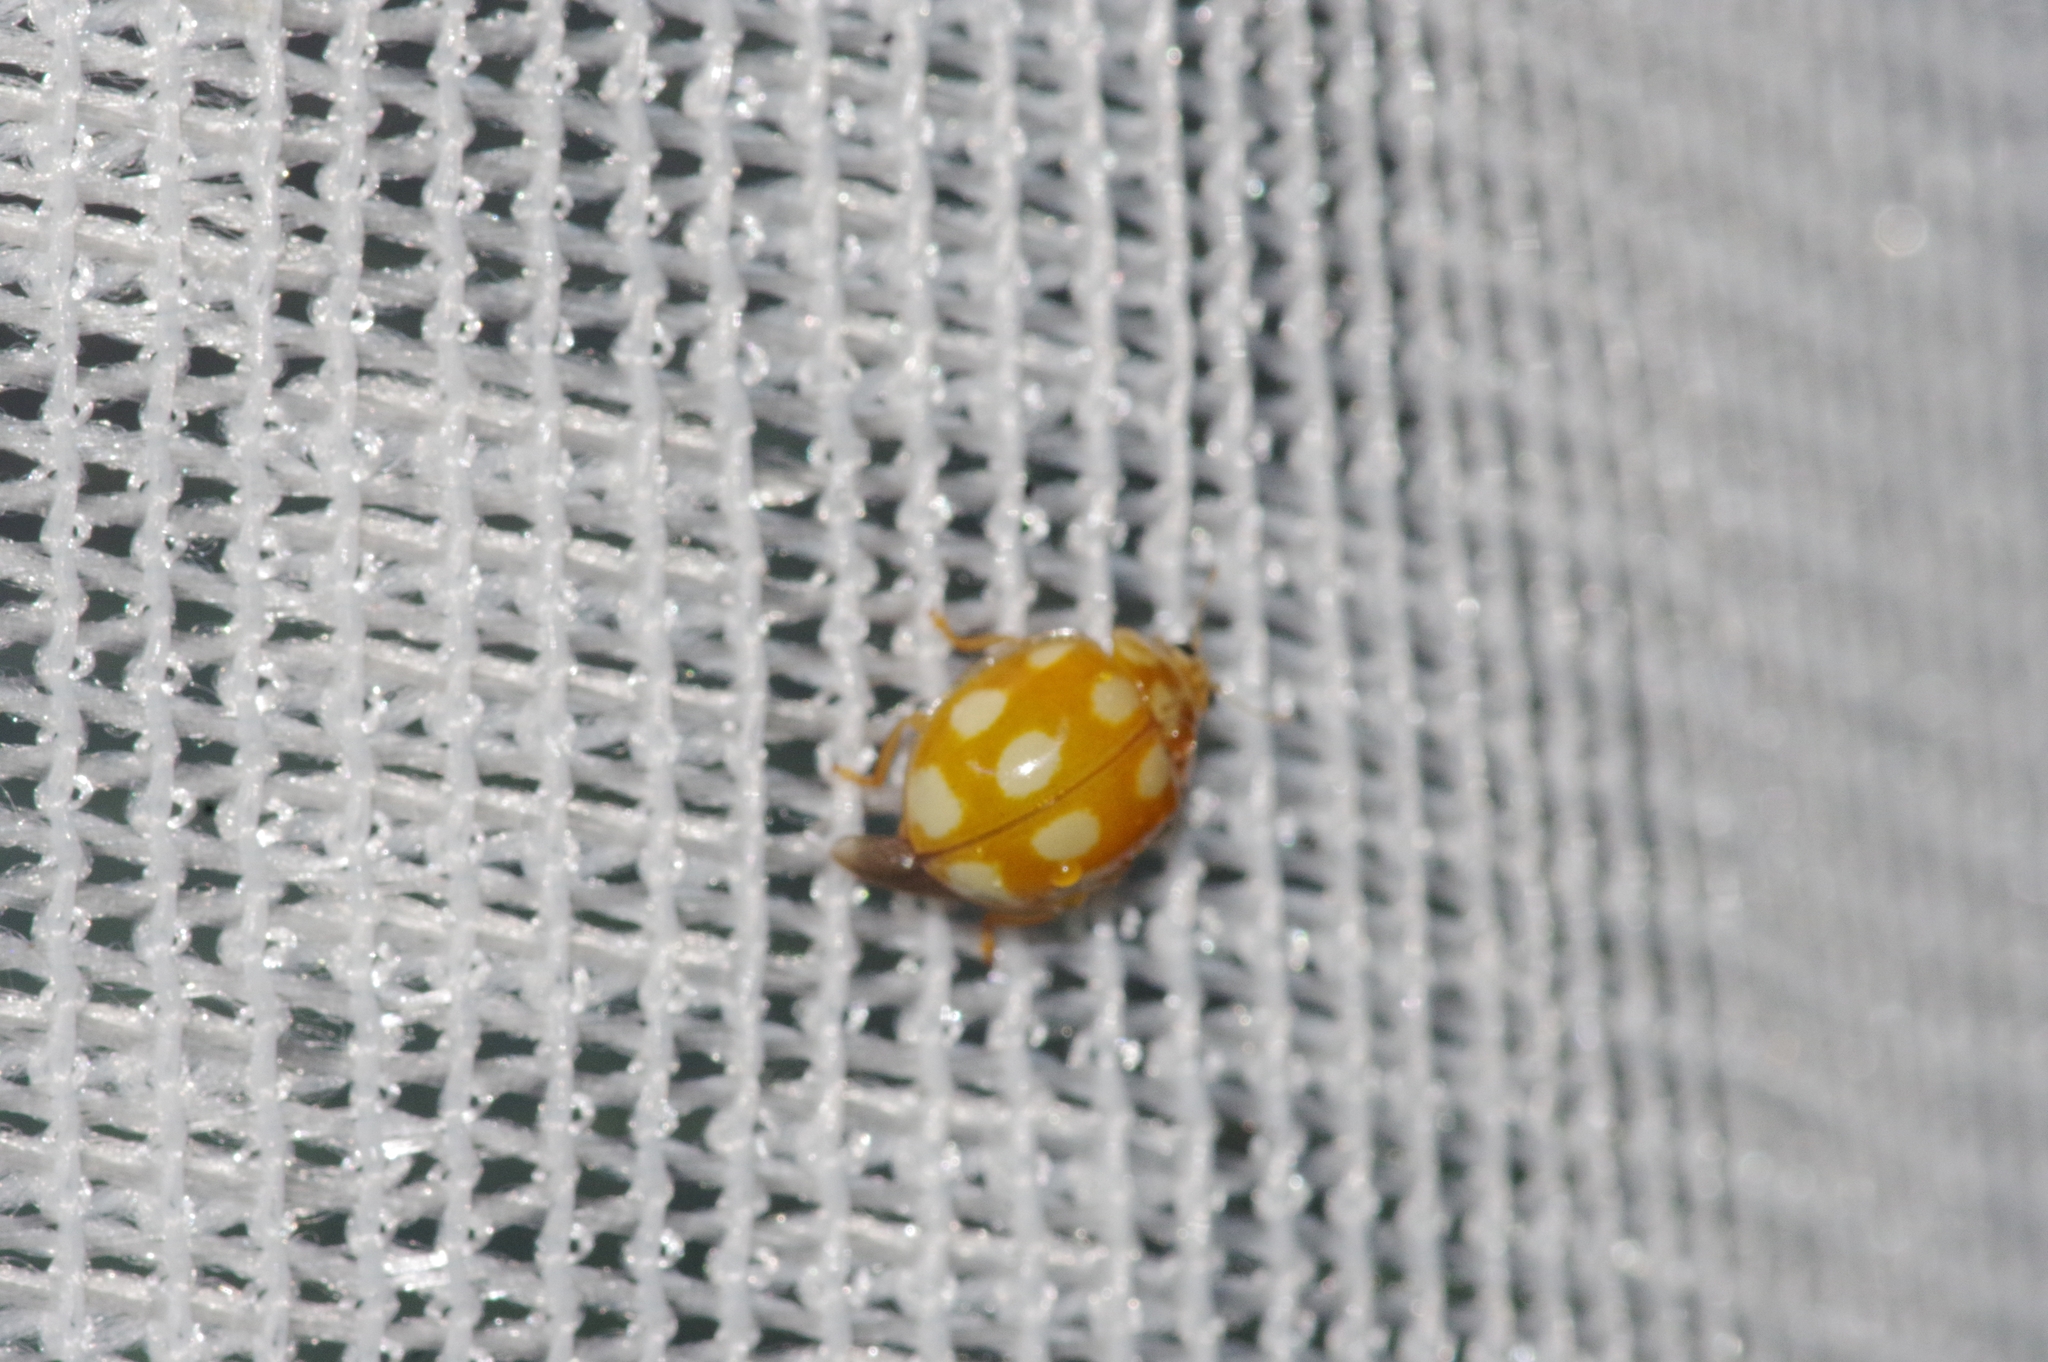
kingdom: Animalia
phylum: Arthropoda
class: Insecta
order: Coleoptera
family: Coccinellidae
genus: Calvia
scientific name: Calvia decemguttata
